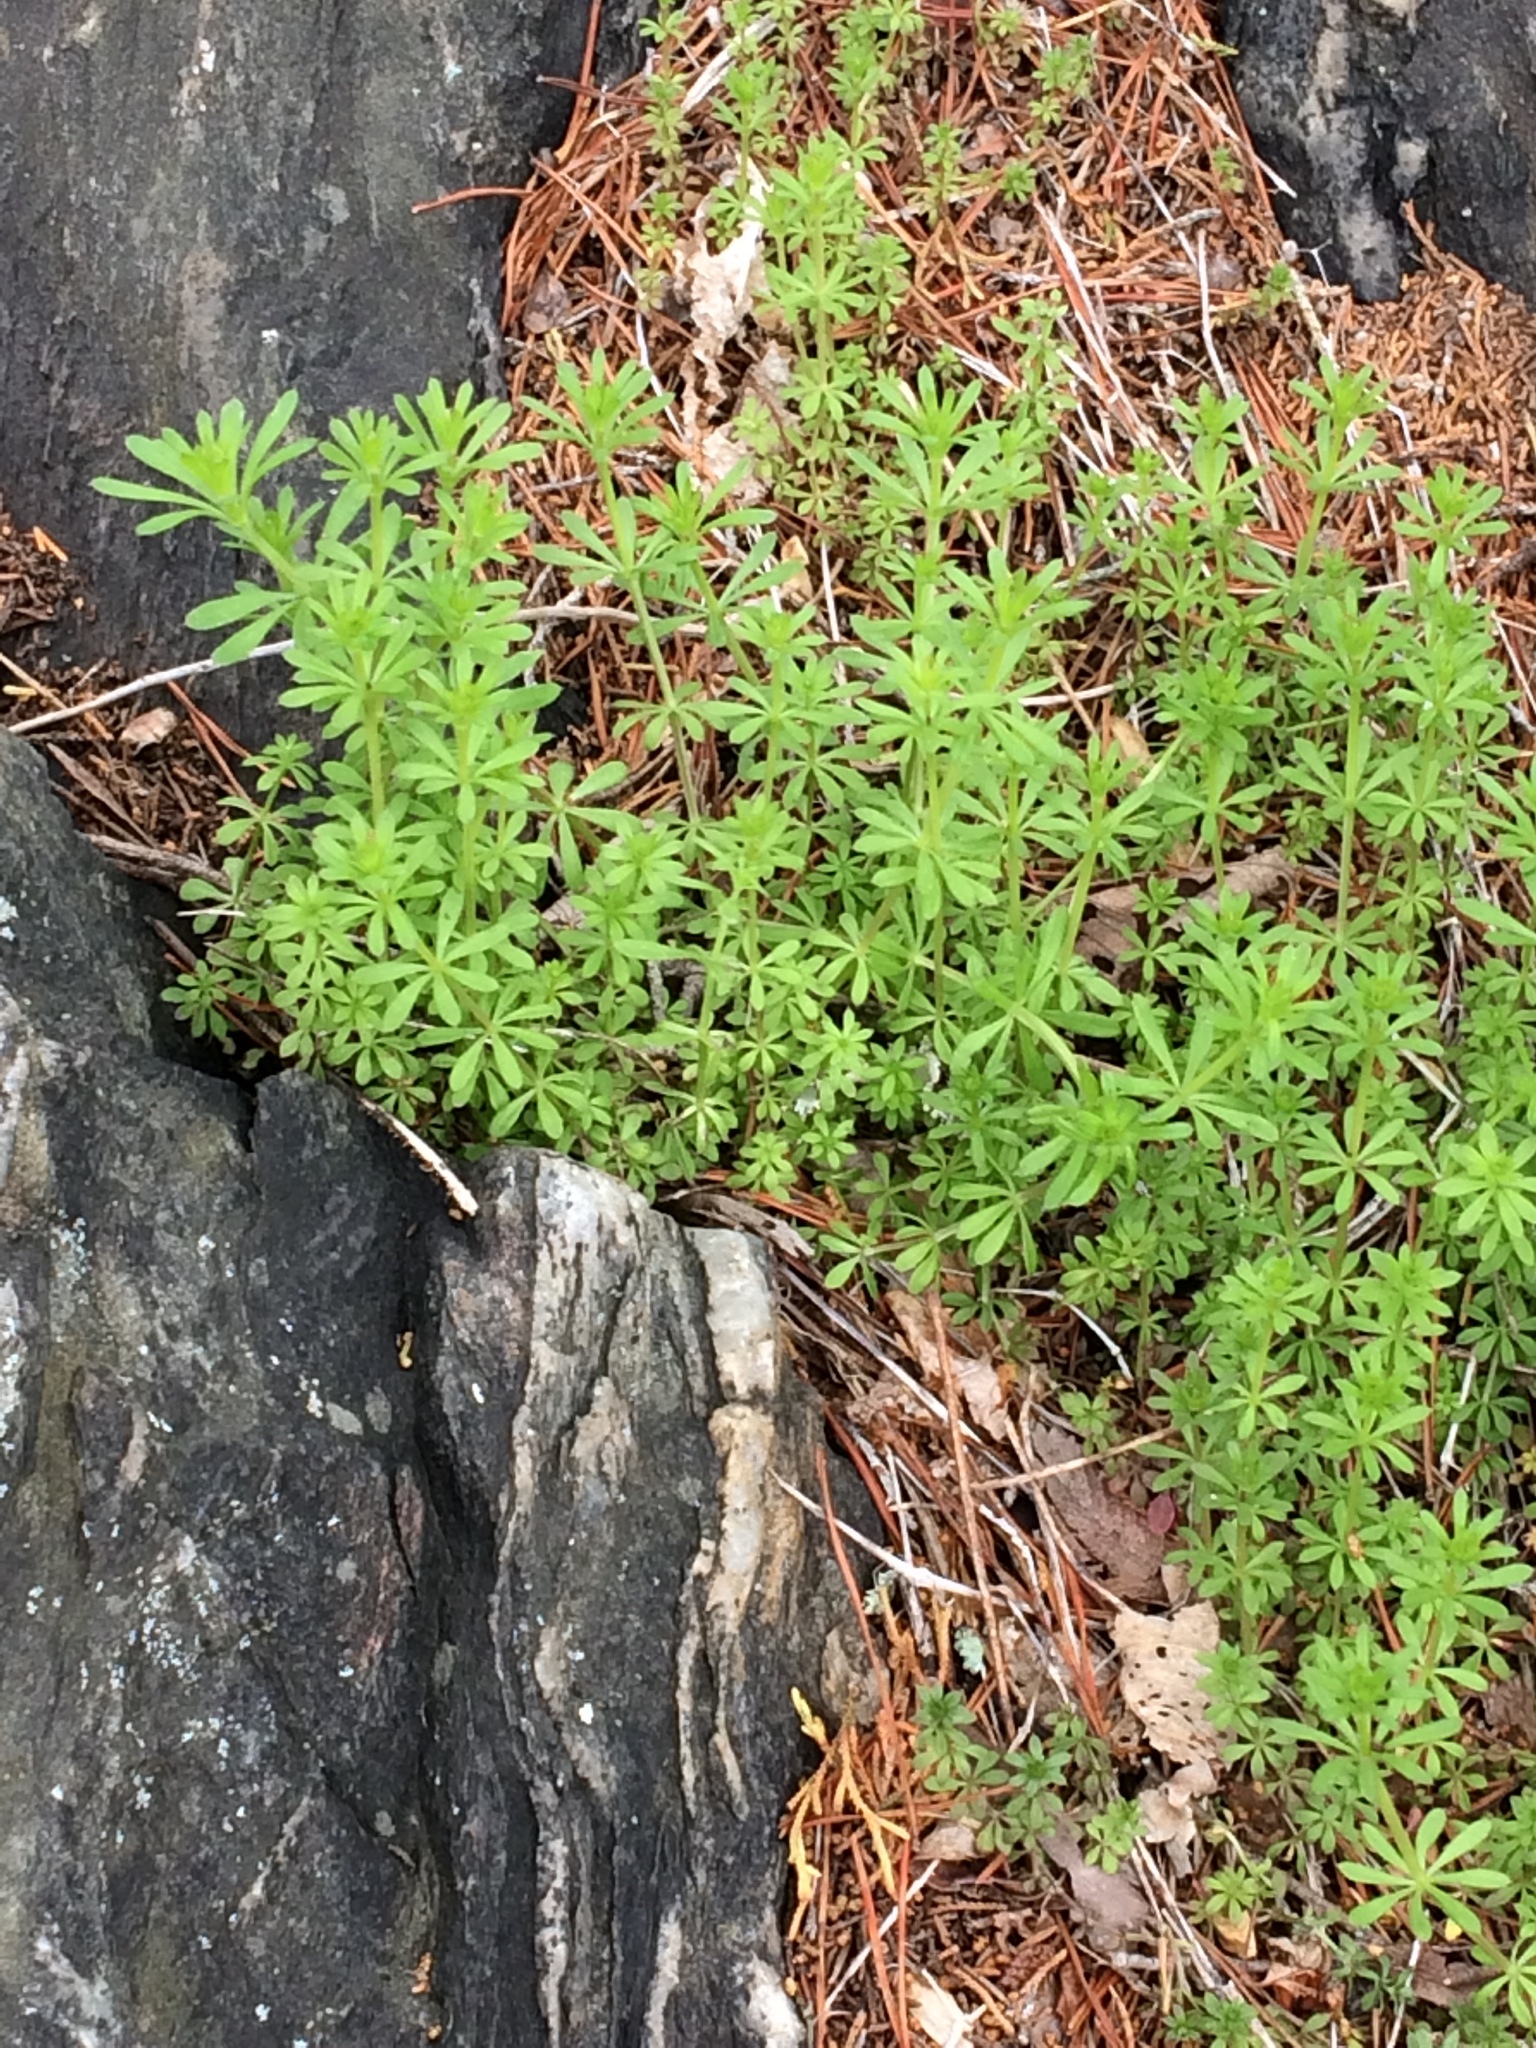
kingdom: Plantae
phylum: Tracheophyta
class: Magnoliopsida
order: Gentianales
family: Rubiaceae
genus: Galium
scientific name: Galium aparine
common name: Cleavers
